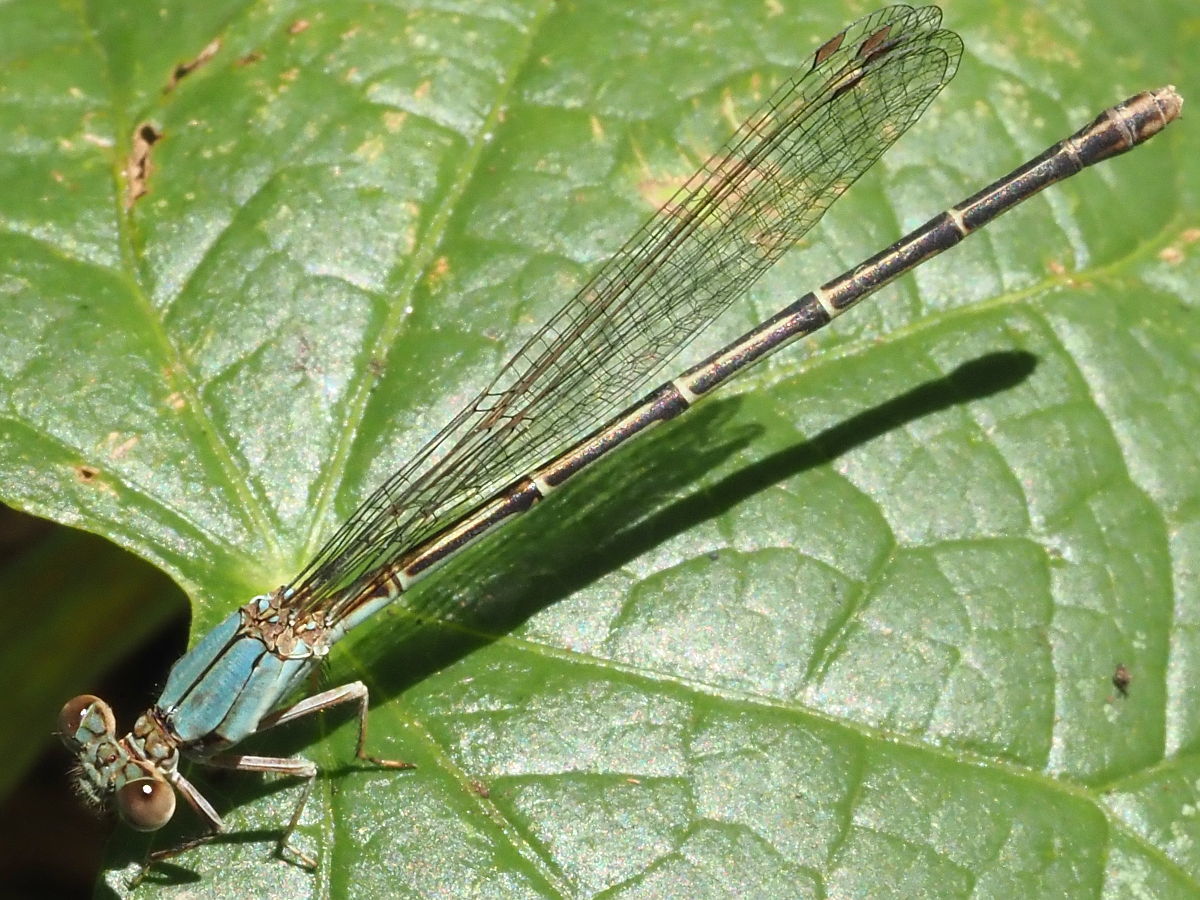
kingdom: Animalia
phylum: Arthropoda
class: Insecta
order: Odonata
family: Coenagrionidae
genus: Argia
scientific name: Argia apicalis
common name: Blue-fronted dancer
